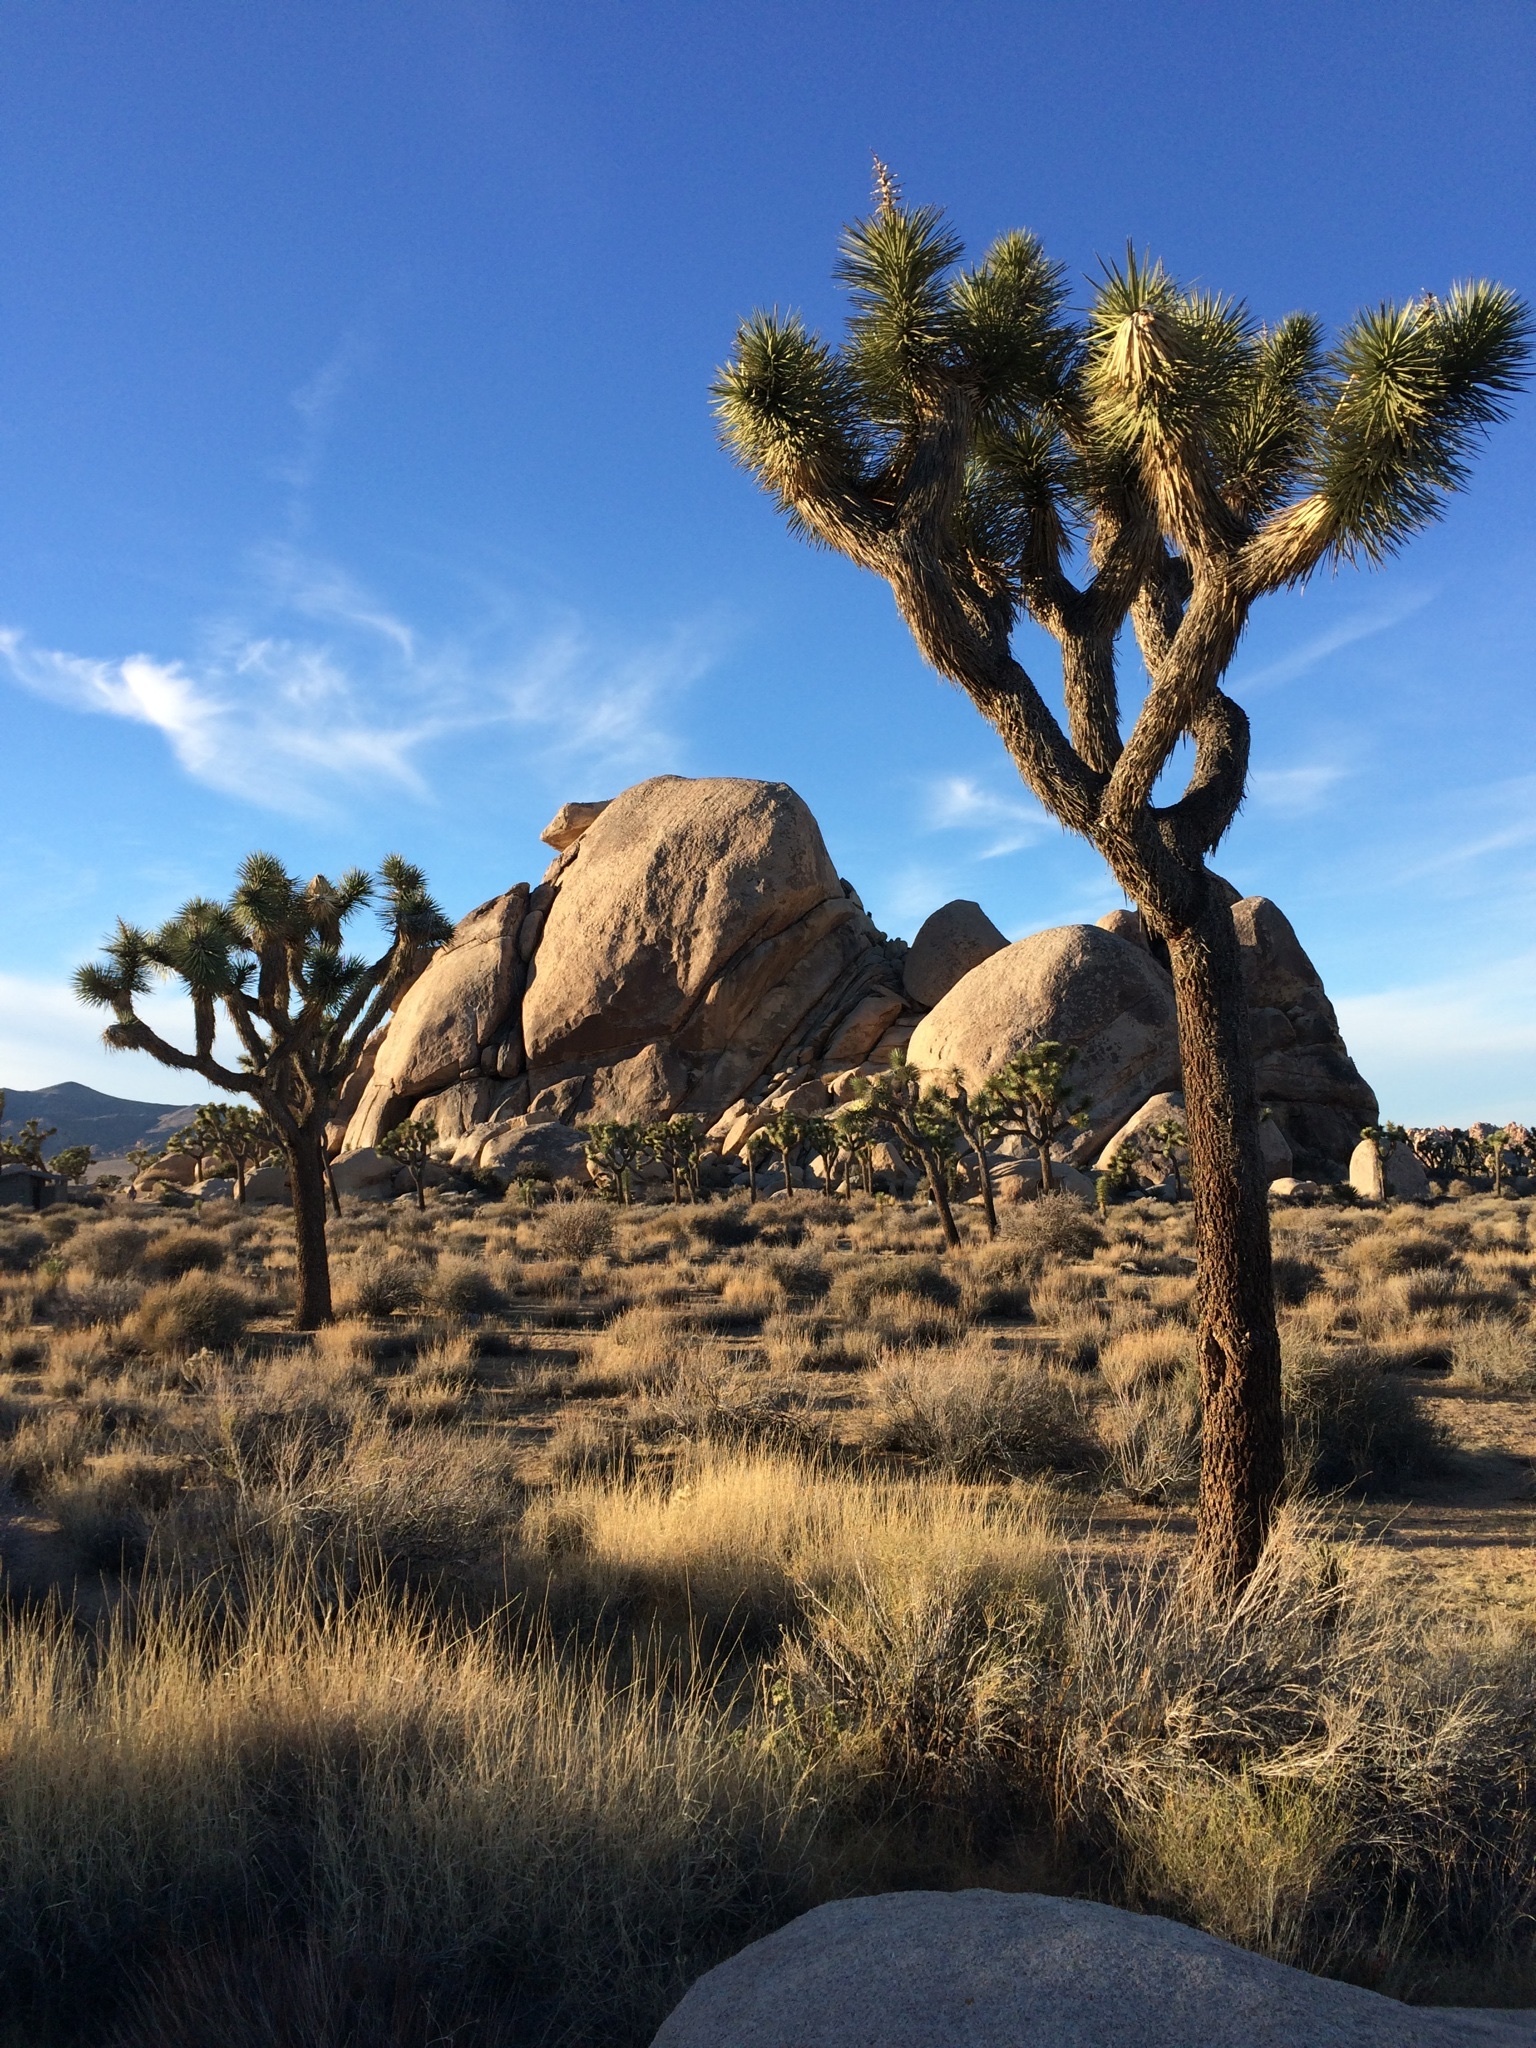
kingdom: Plantae
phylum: Tracheophyta
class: Liliopsida
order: Asparagales
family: Asparagaceae
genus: Yucca
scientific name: Yucca brevifolia
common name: Joshua tree
